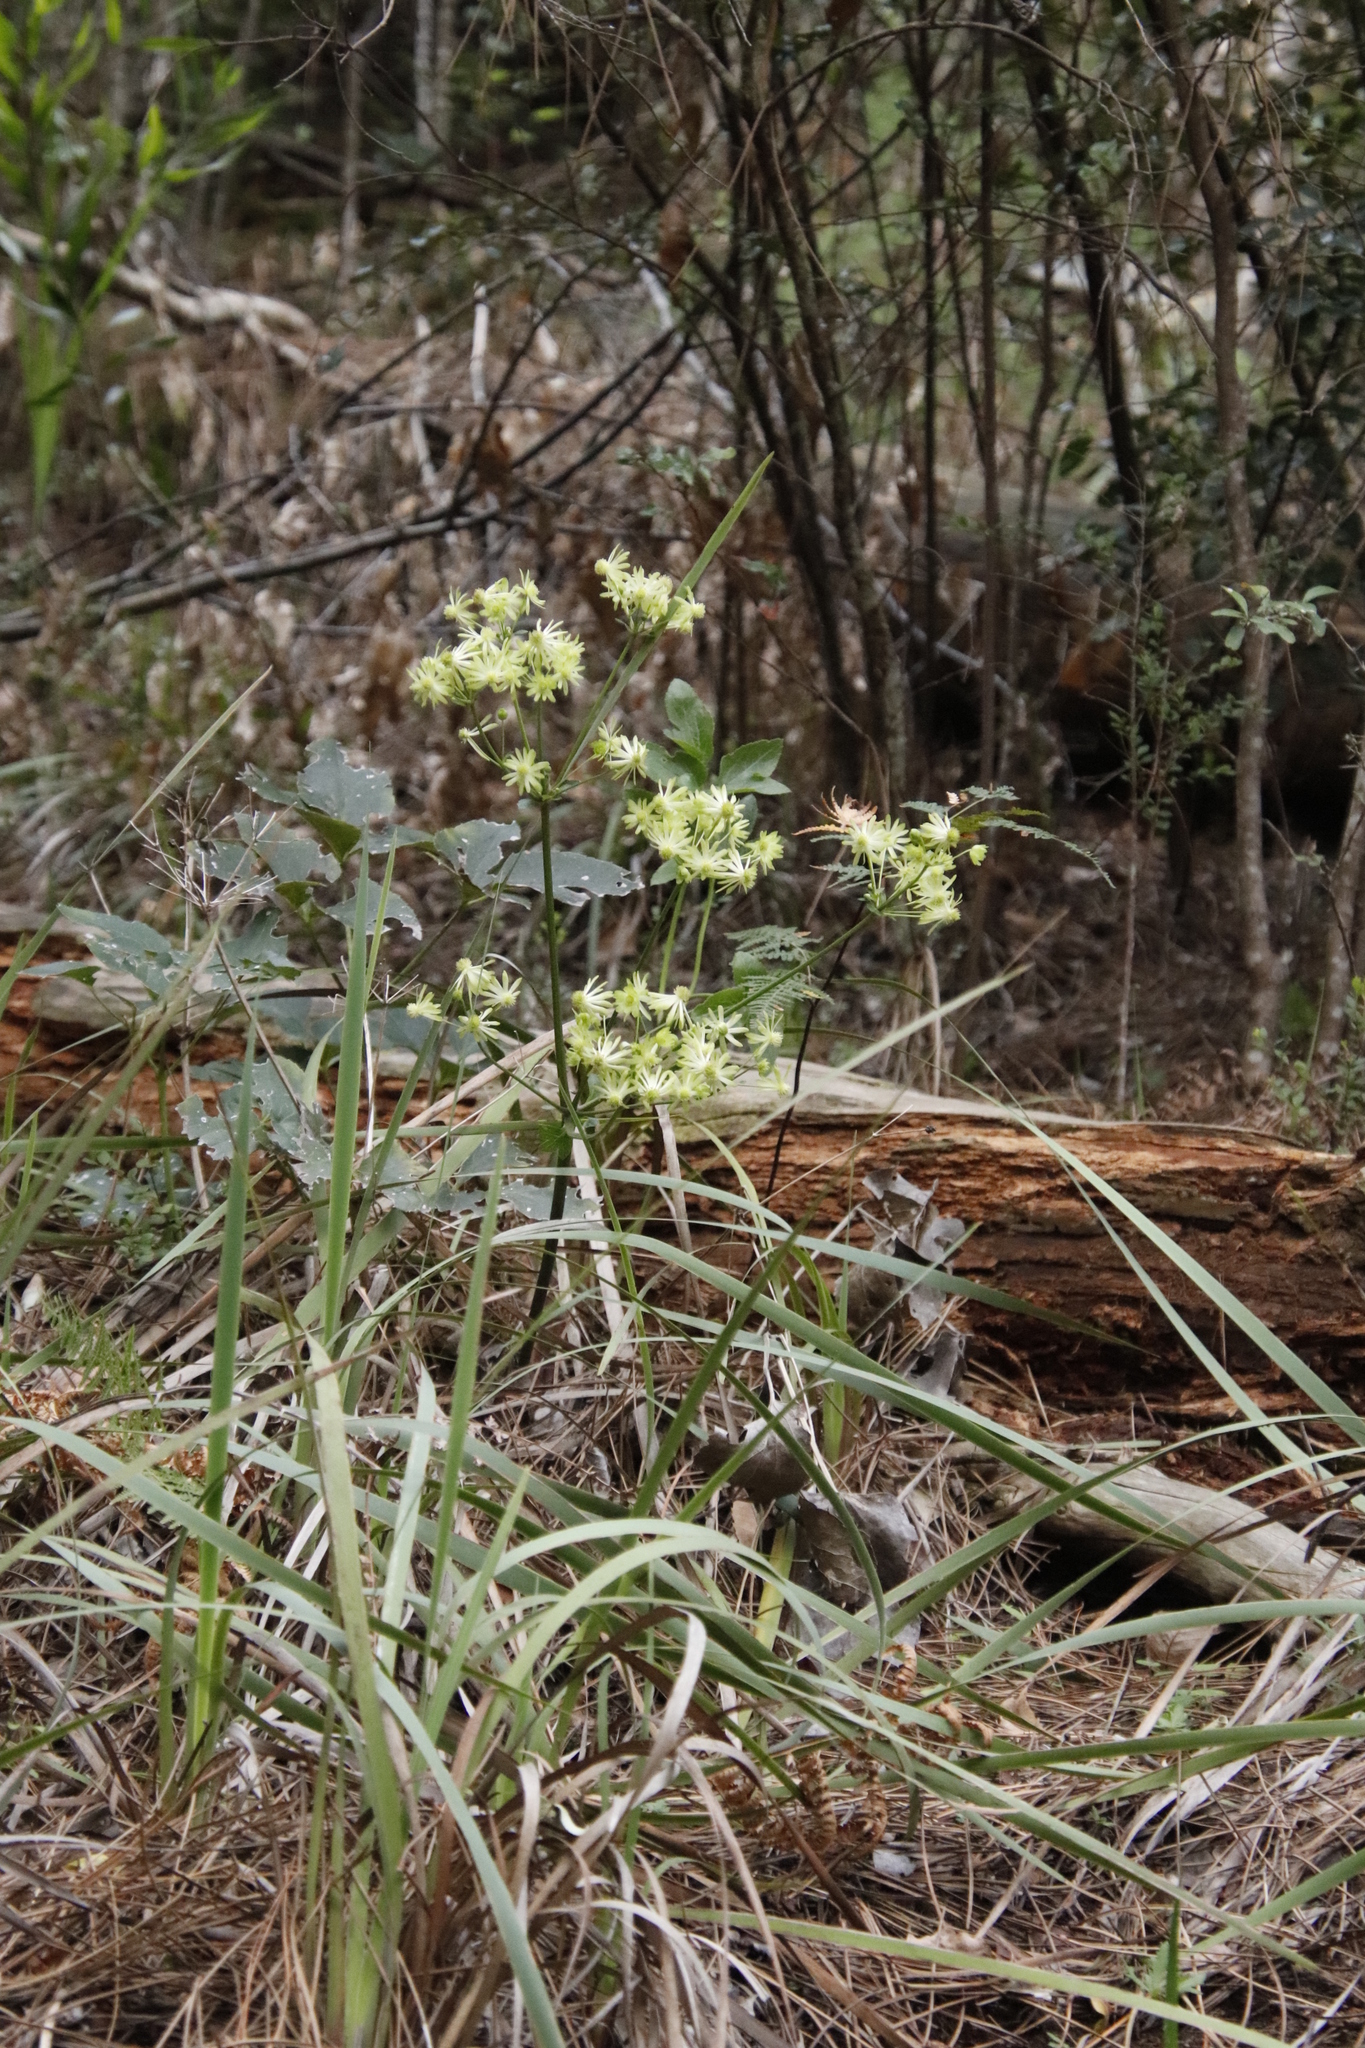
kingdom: Plantae
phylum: Tracheophyta
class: Magnoliopsida
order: Ranunculales
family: Ranunculaceae
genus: Knowltonia
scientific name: Knowltonia vesicatoria
